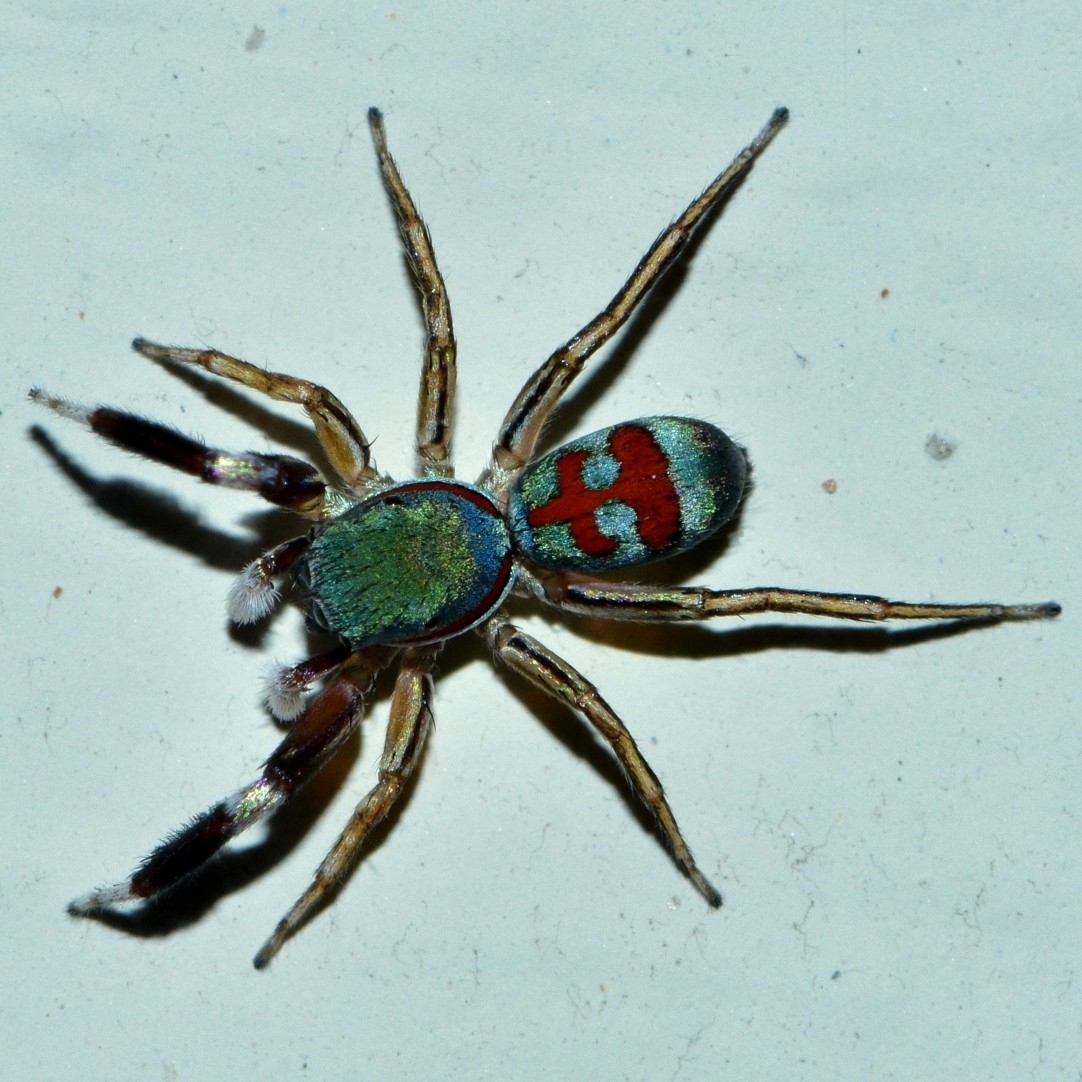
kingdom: Animalia
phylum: Arthropoda
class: Arachnida
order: Araneae
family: Salticidae
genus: Siler
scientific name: Siler semiglaucus
